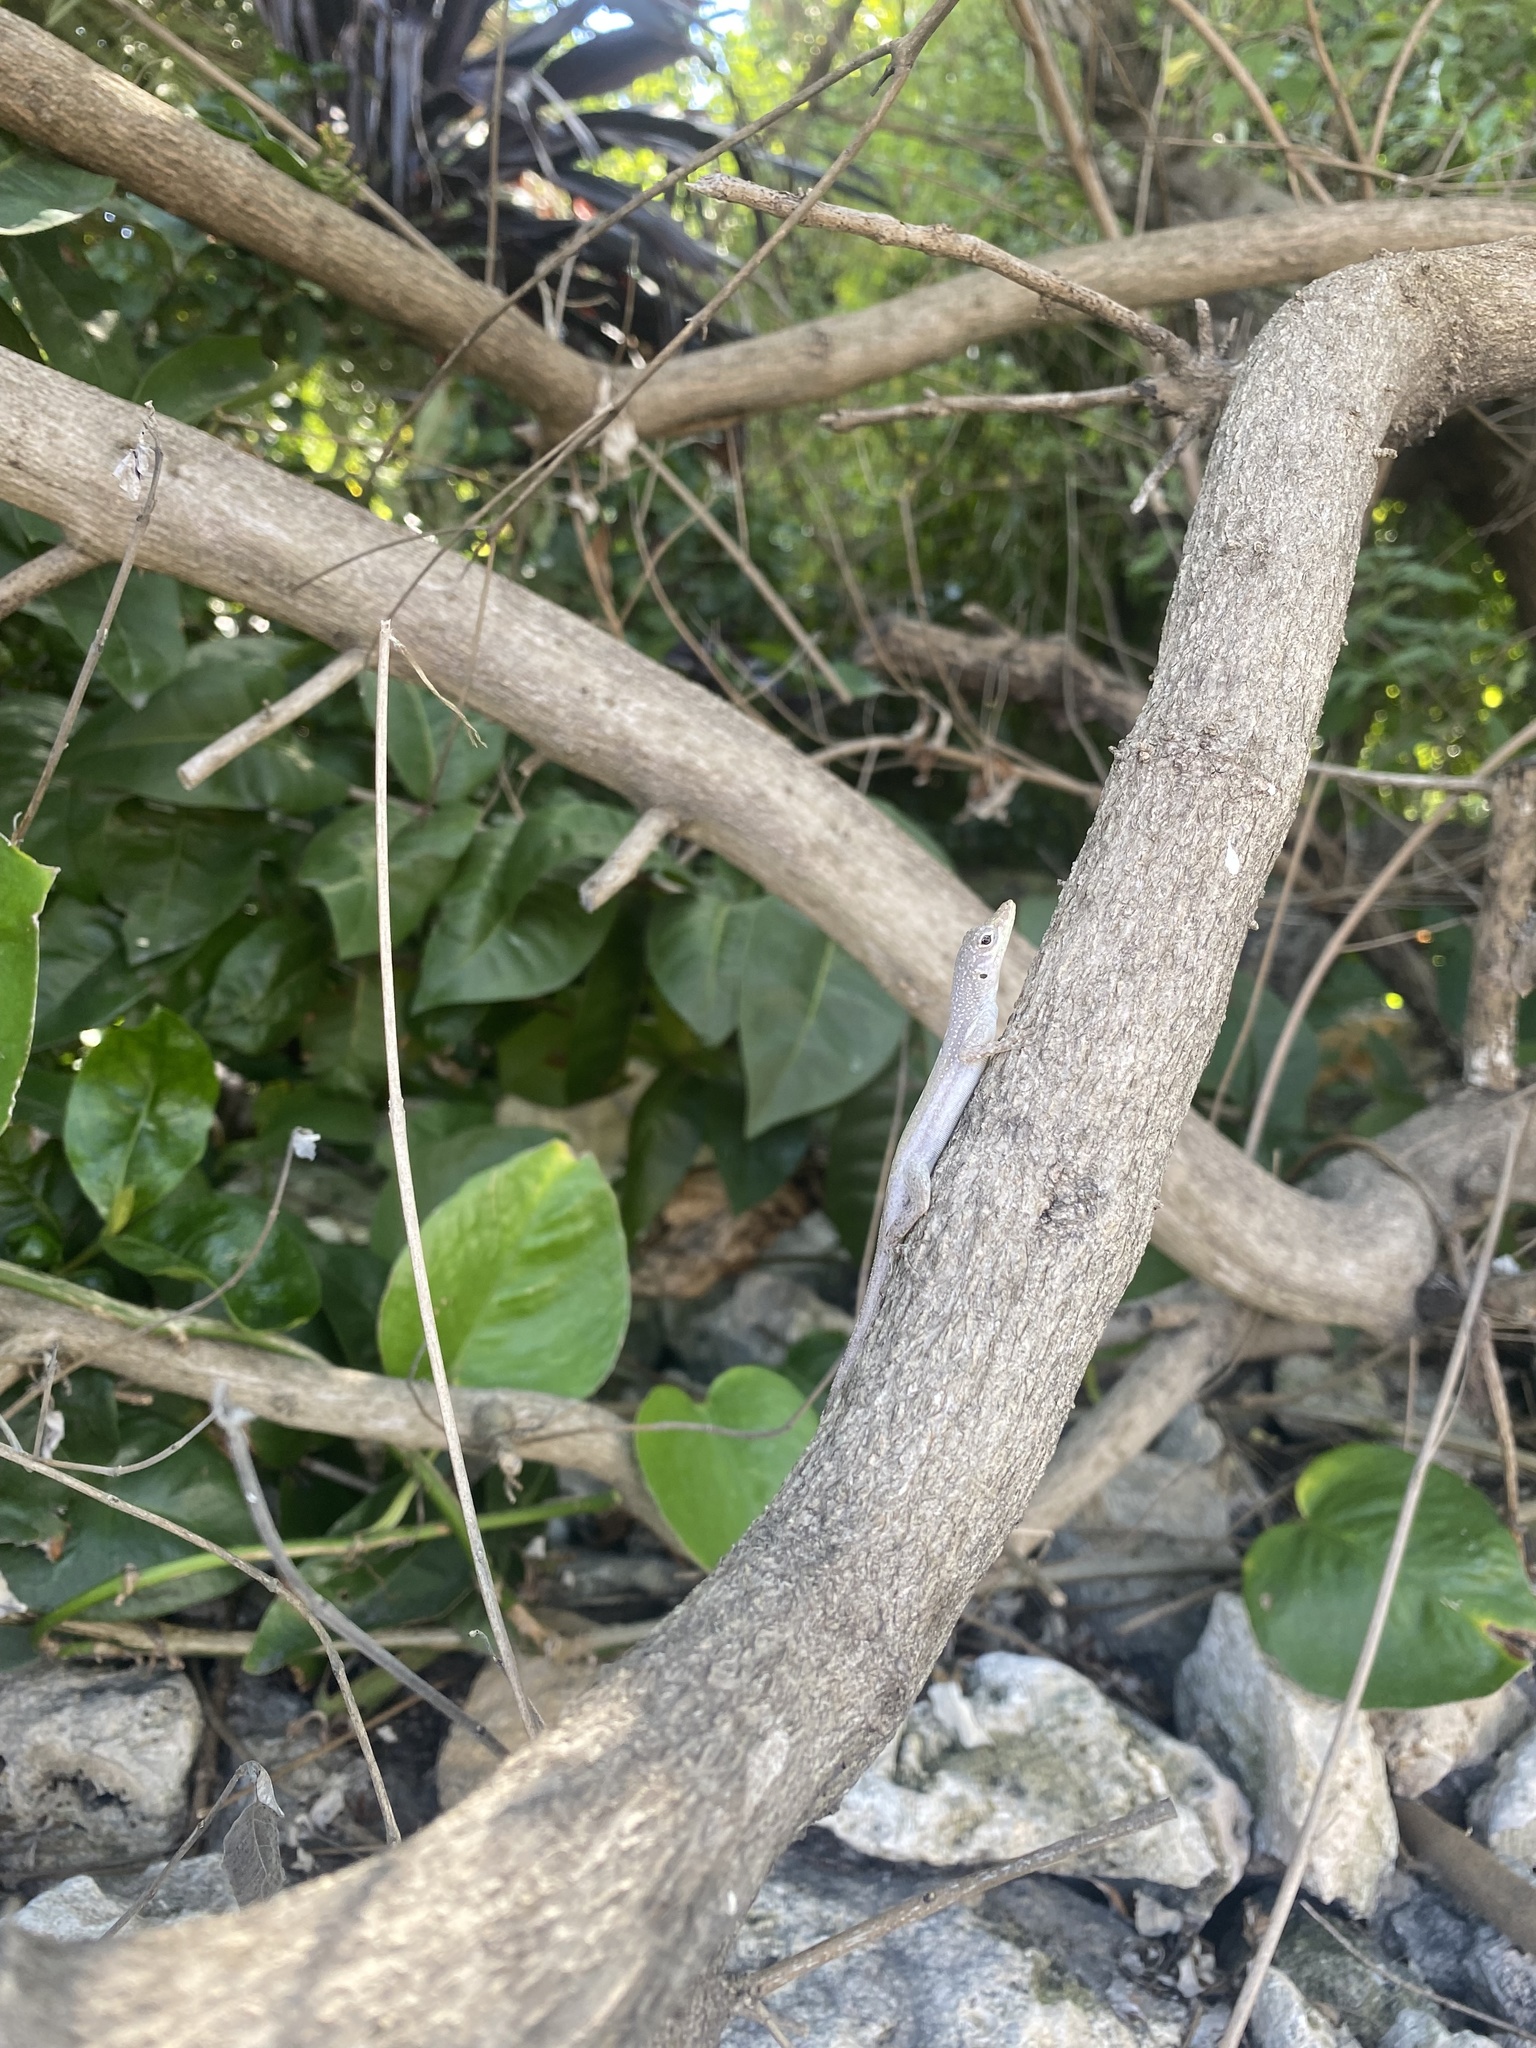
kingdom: Animalia
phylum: Chordata
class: Squamata
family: Dactyloidae
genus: Anolis
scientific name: Anolis conspersus
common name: Grand cayman anole
